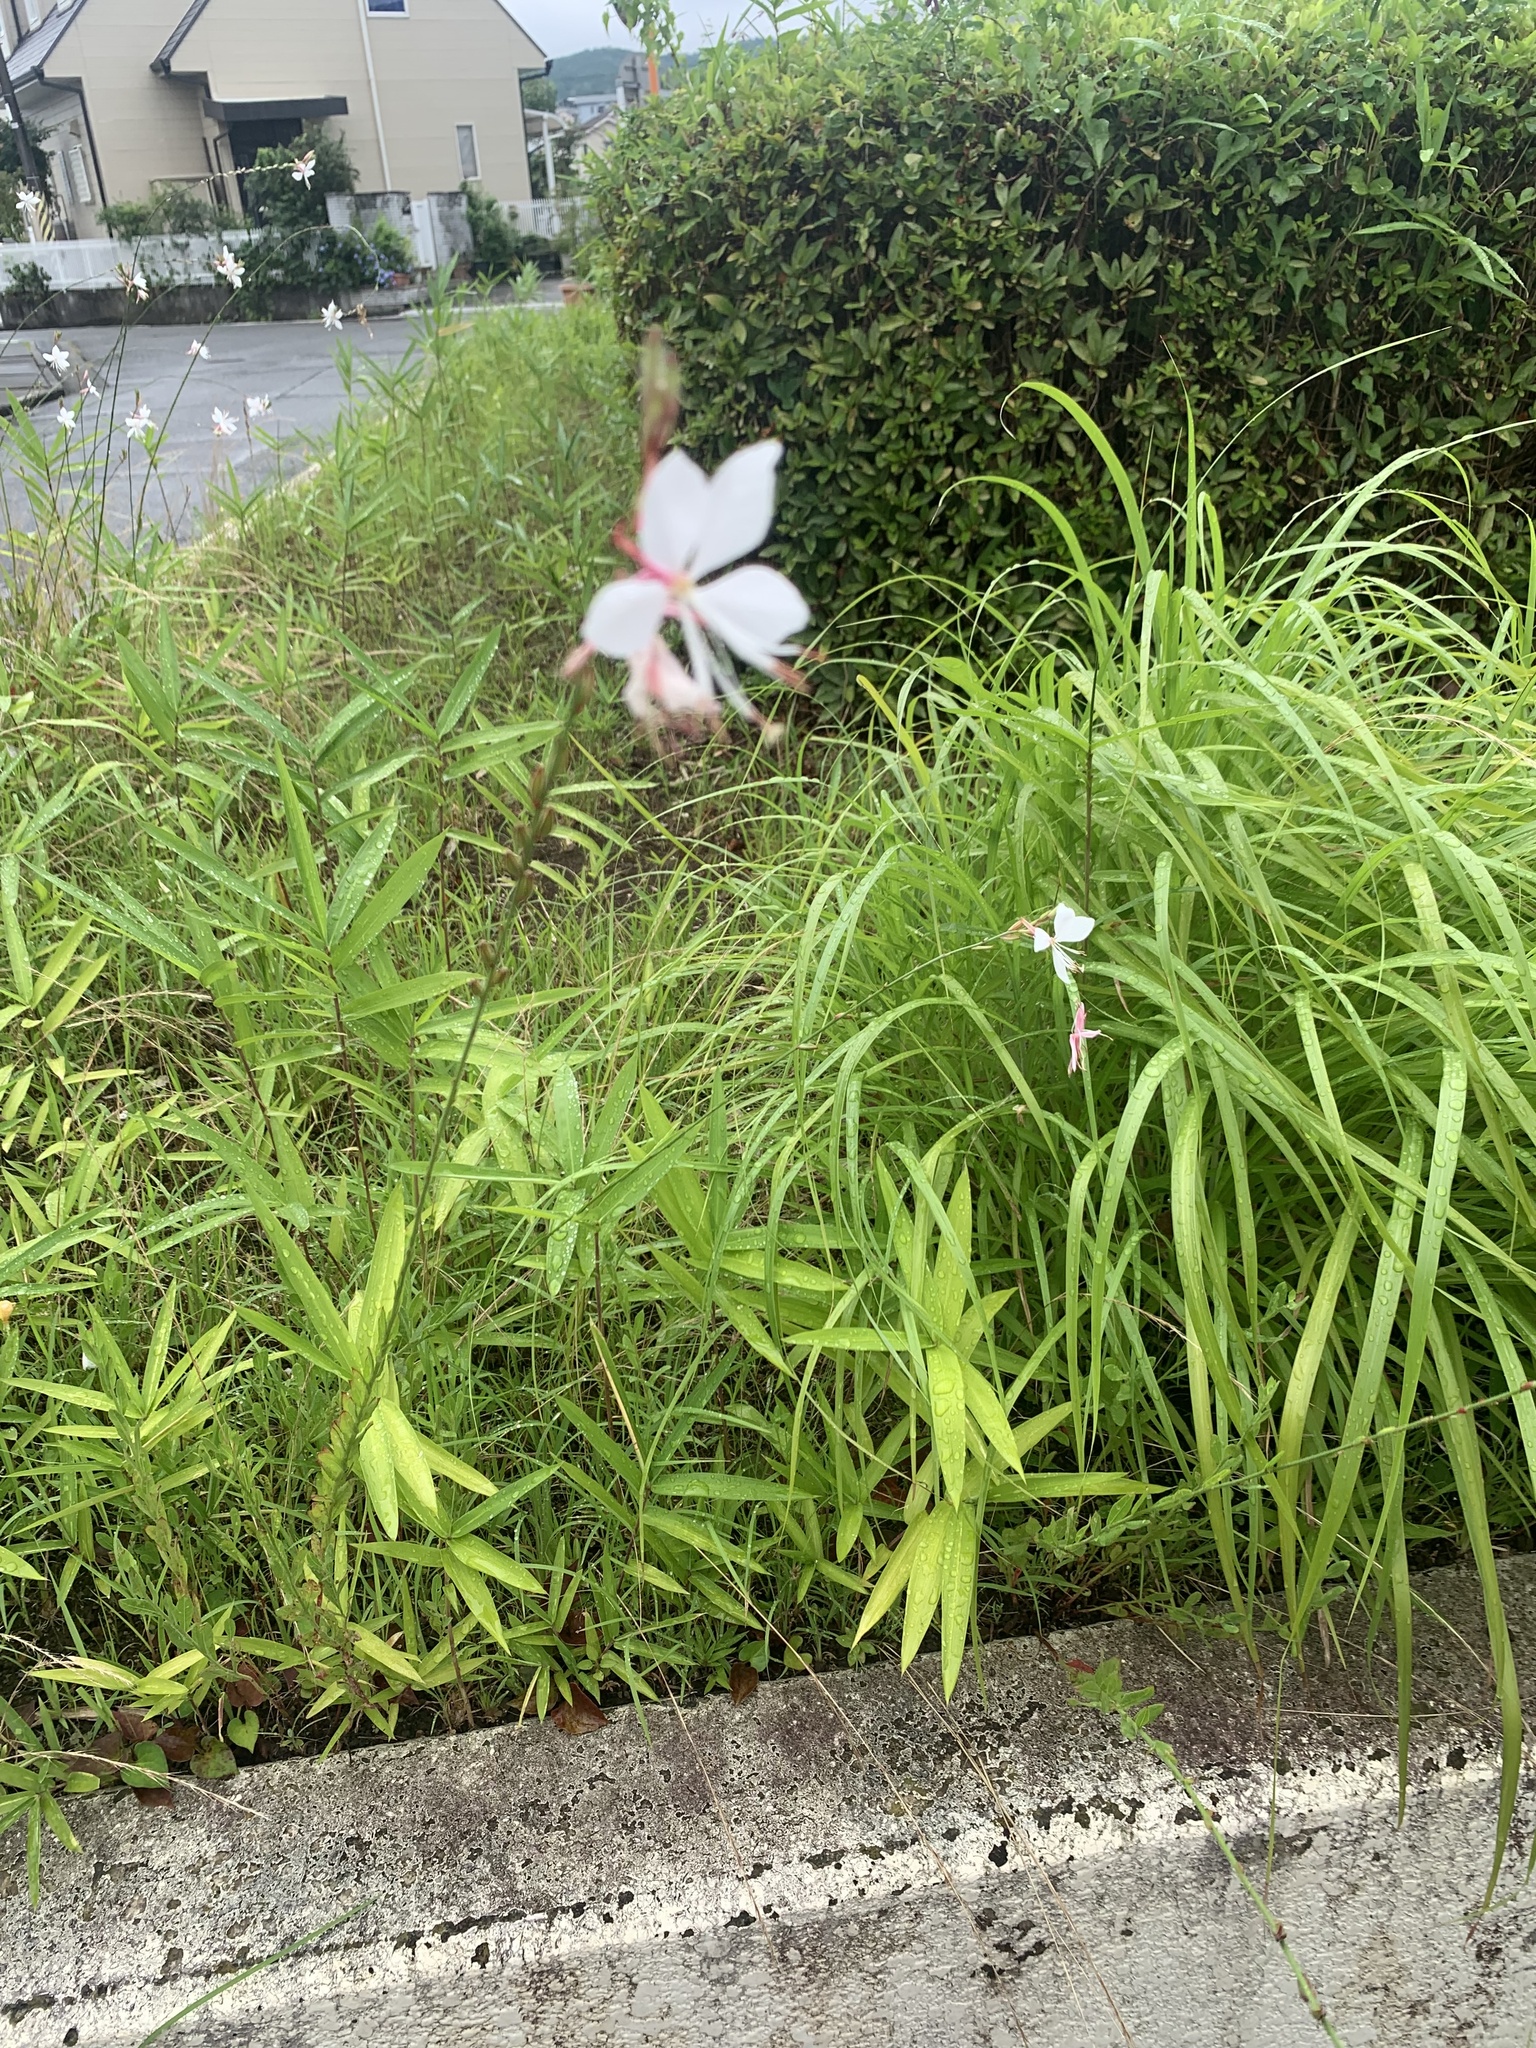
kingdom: Plantae
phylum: Tracheophyta
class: Magnoliopsida
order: Myrtales
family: Onagraceae
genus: Oenothera
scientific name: Oenothera lindheimeri
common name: Lindheimer's beeblossom
